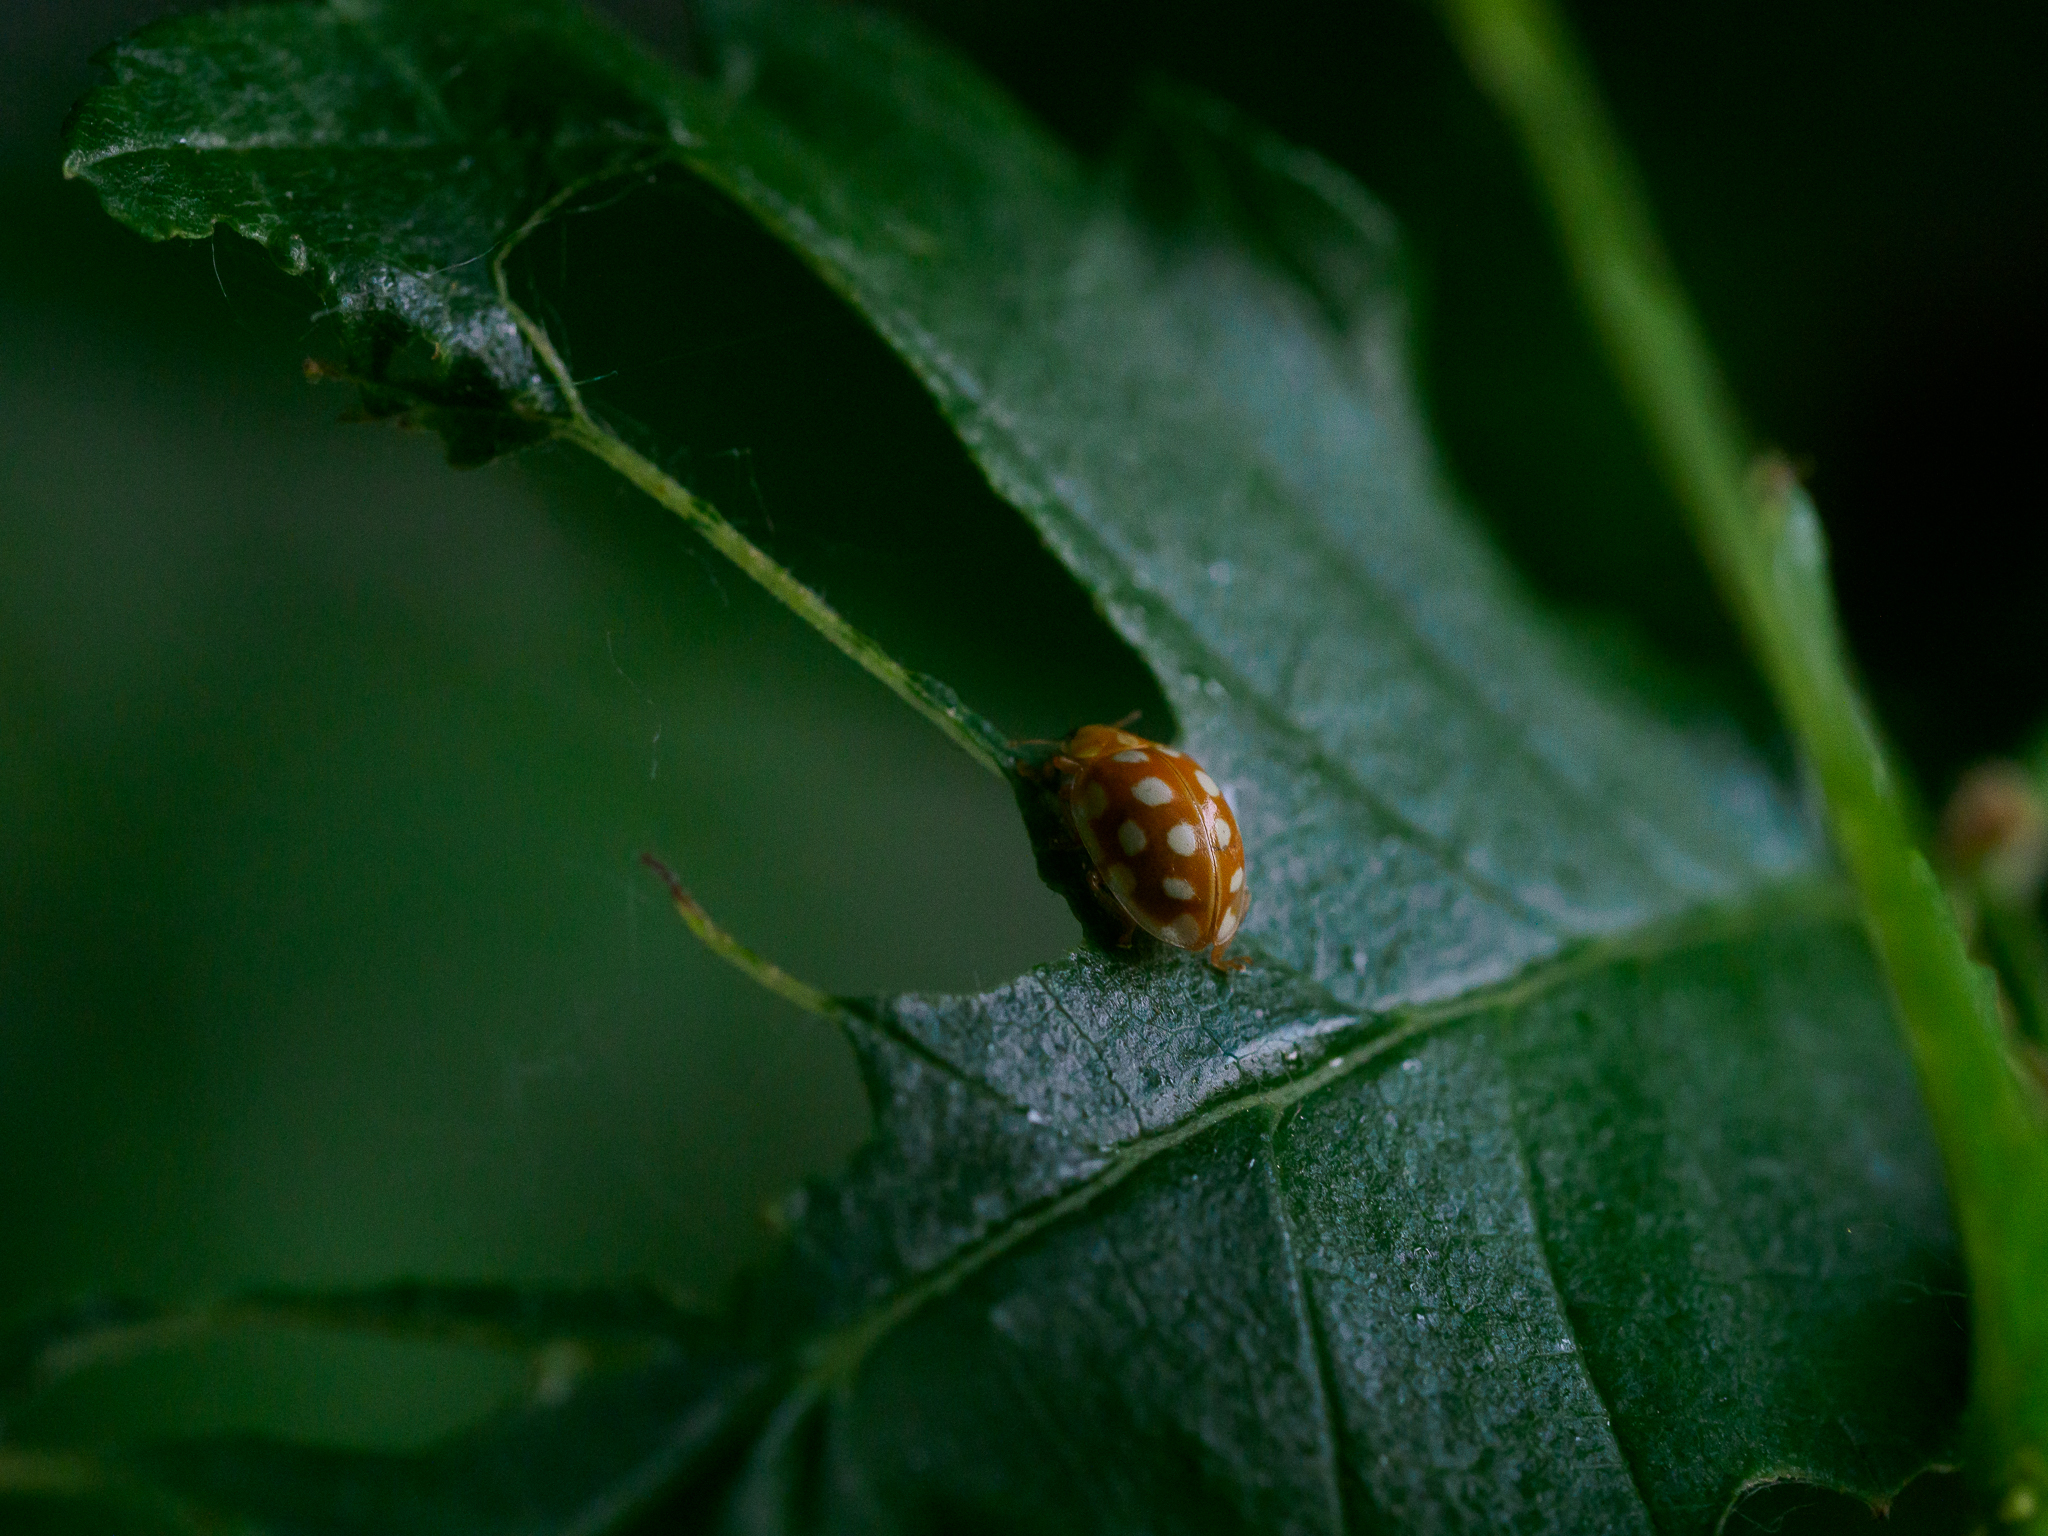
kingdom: Animalia
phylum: Arthropoda
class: Insecta
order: Coleoptera
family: Coccinellidae
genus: Halyzia
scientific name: Halyzia sedecimguttata
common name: Orange ladybird
